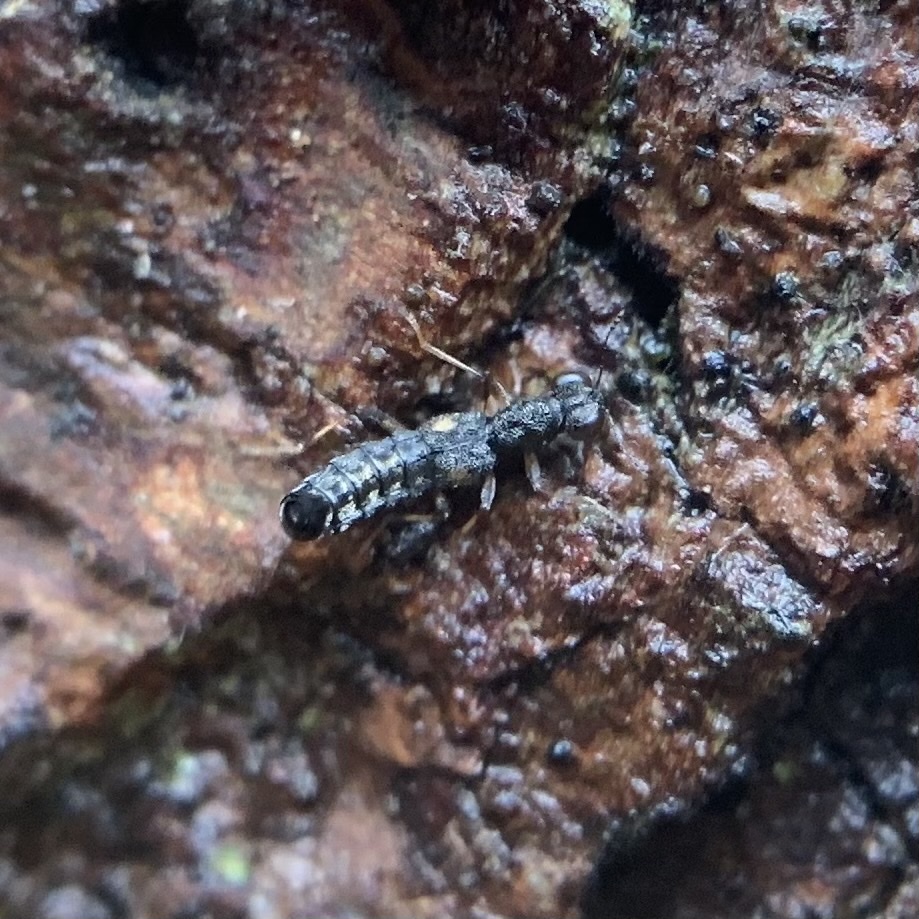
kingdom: Animalia
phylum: Arthropoda
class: Insecta
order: Coleoptera
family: Staphylinidae
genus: Stenus
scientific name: Stenus colon
